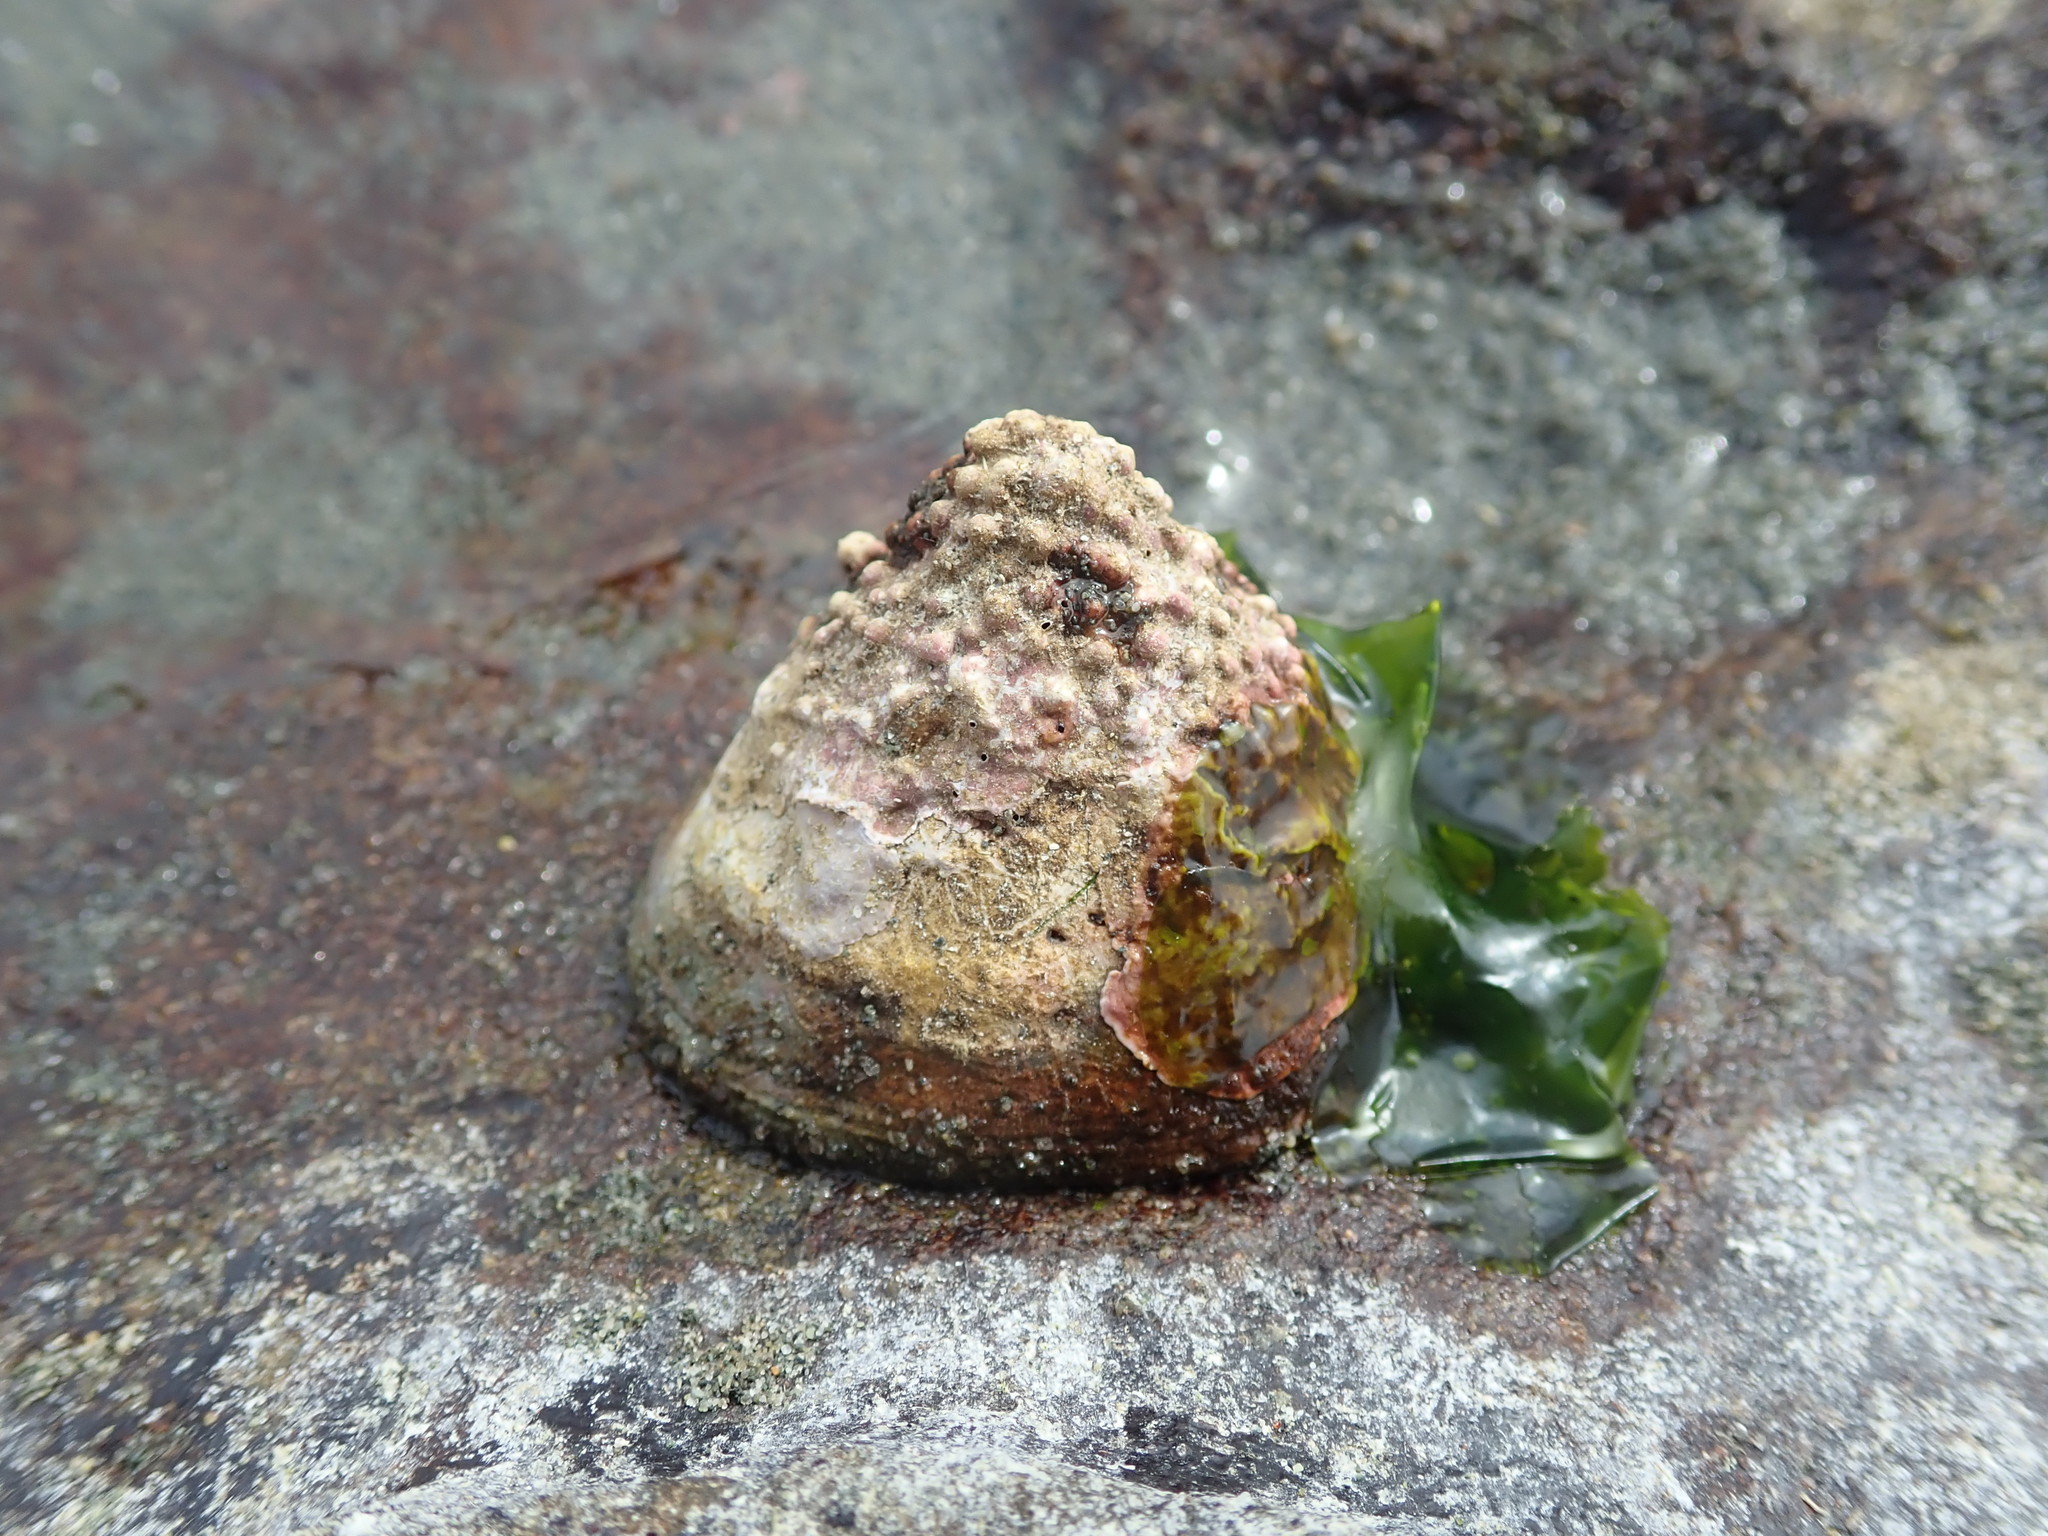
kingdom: Animalia
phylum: Mollusca
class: Gastropoda
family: Acmaeidae
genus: Acmaea
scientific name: Acmaea mitra
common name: Pacific white cap limpet
